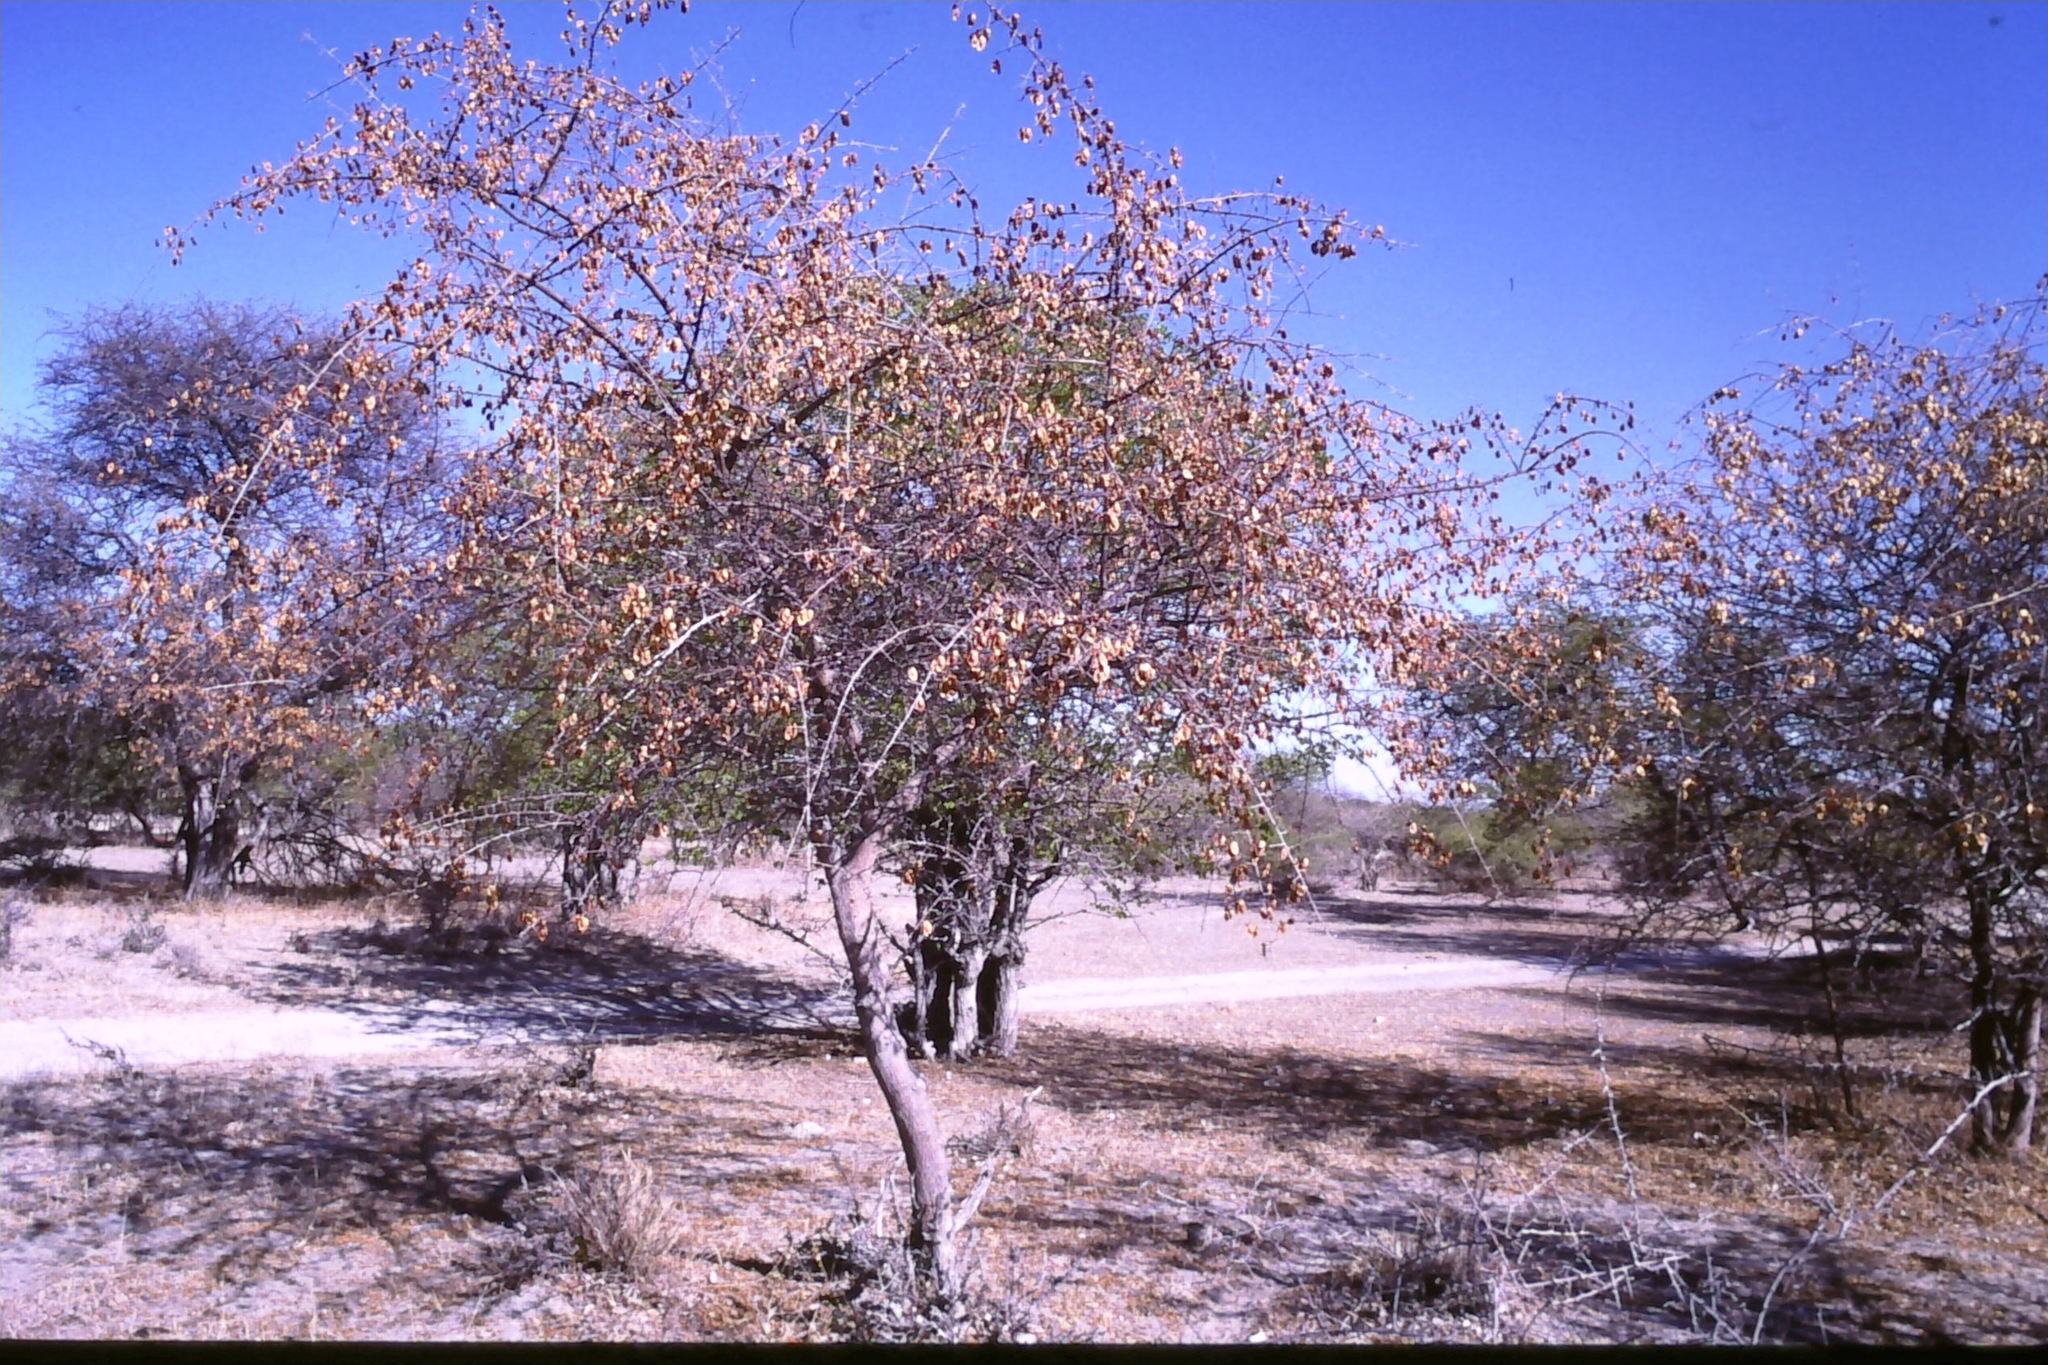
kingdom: Plantae
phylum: Tracheophyta
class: Magnoliopsida
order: Myrtales
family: Combretaceae
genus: Terminalia
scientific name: Terminalia prunioides
